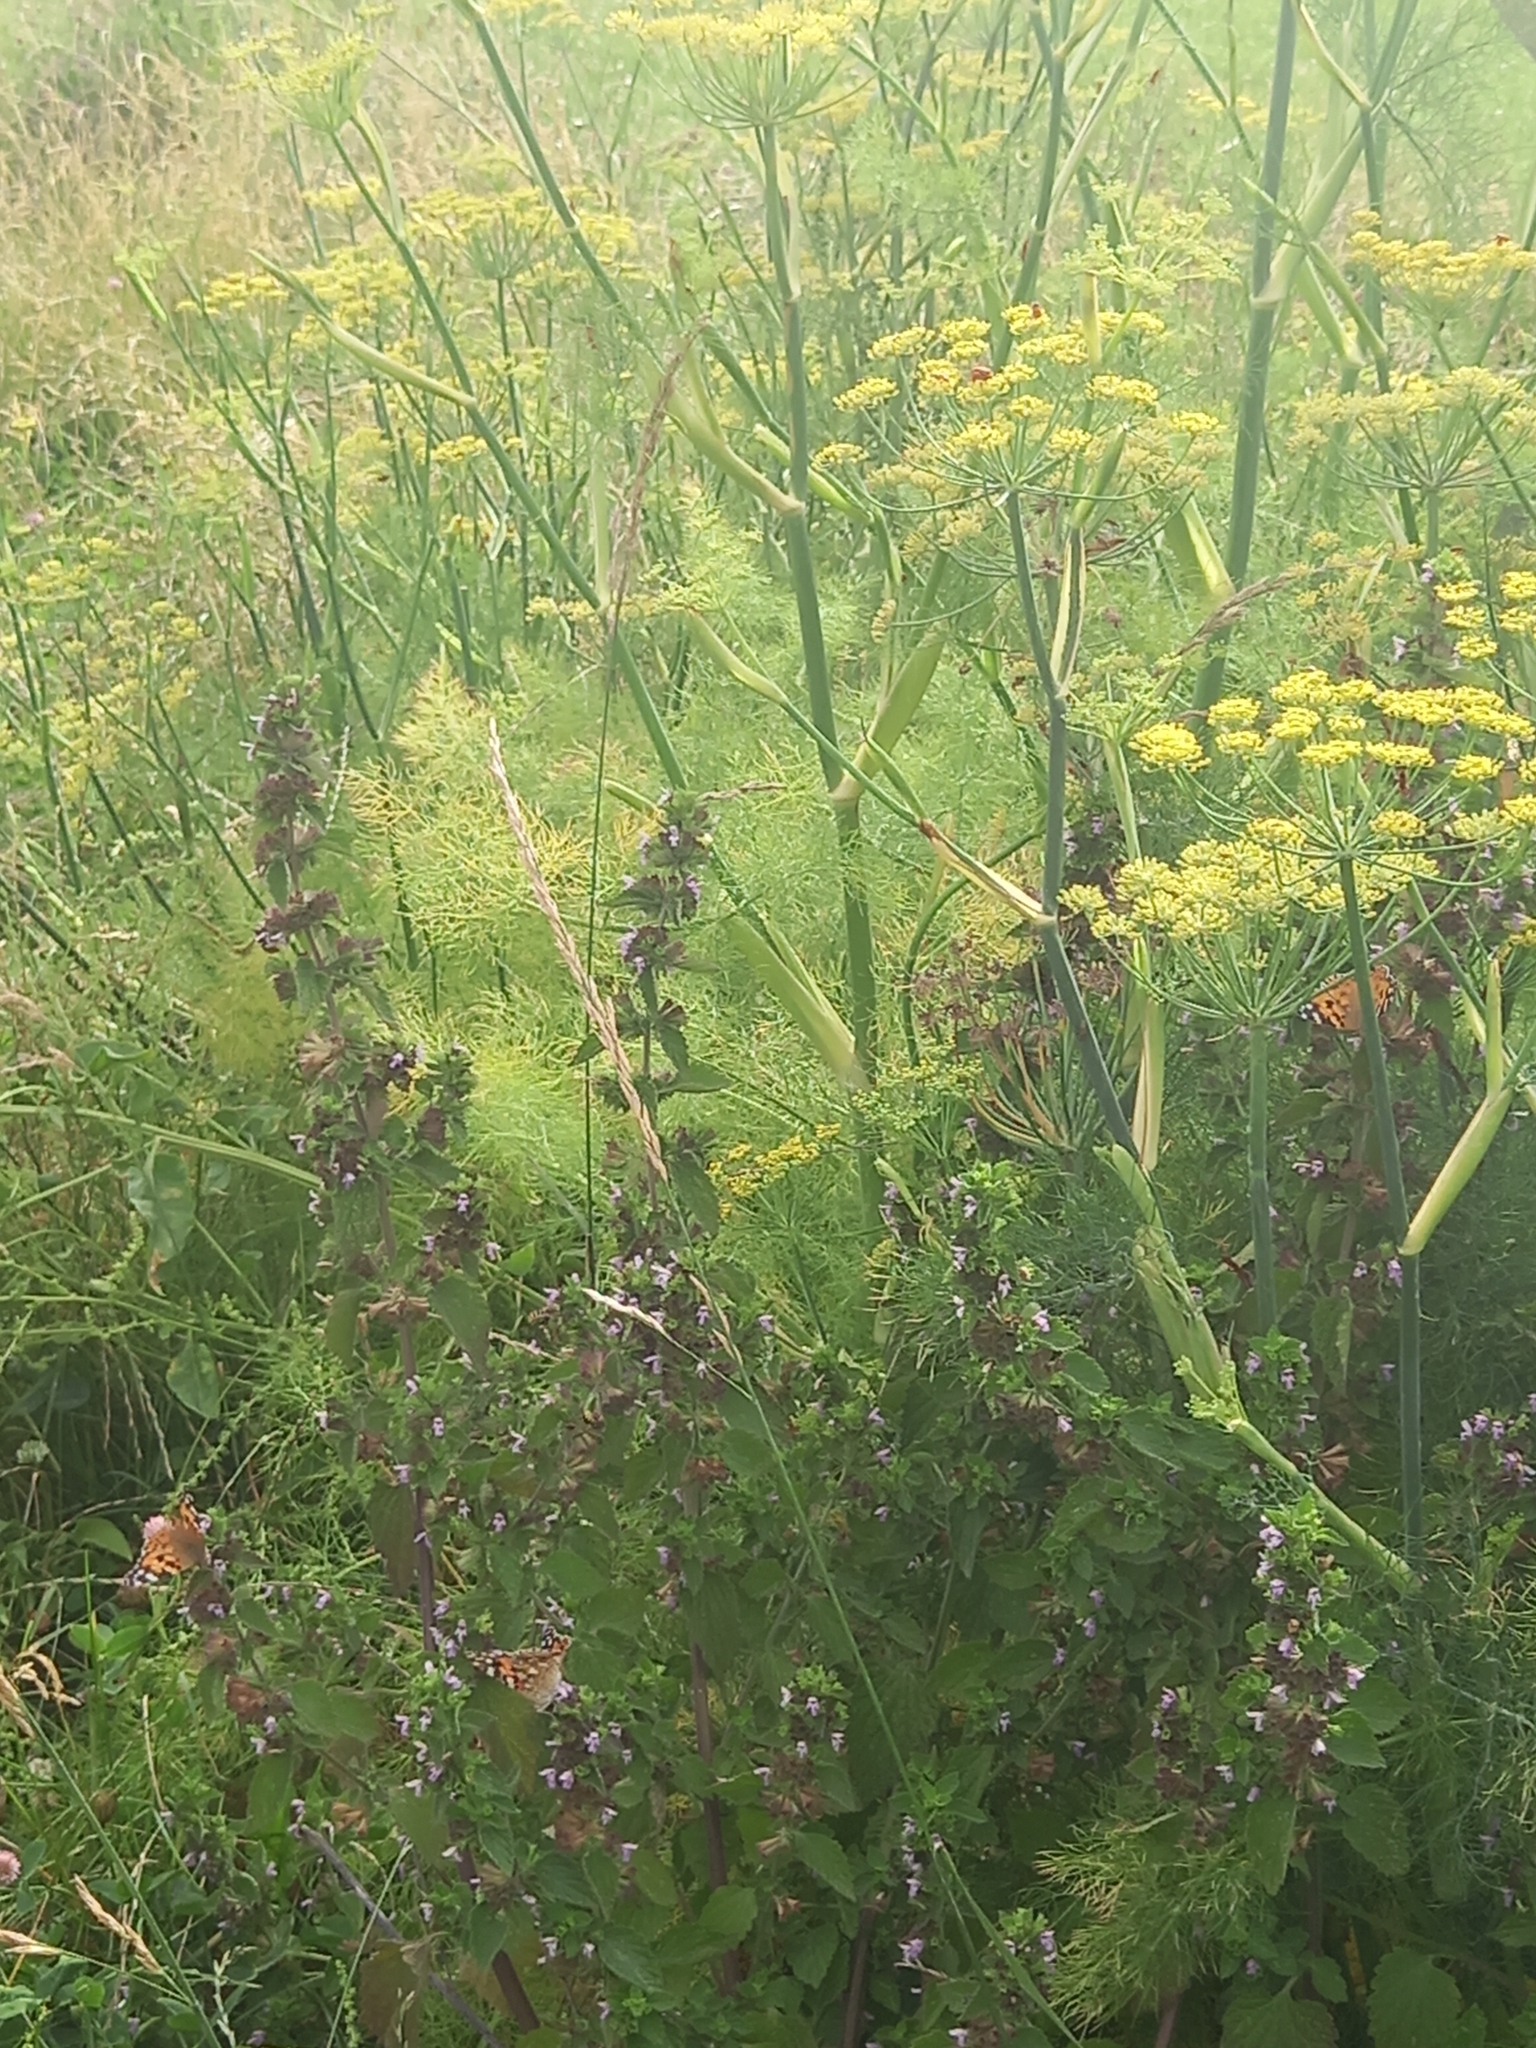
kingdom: Animalia
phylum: Arthropoda
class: Insecta
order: Lepidoptera
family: Nymphalidae
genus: Vanessa
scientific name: Vanessa cardui
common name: Painted lady
